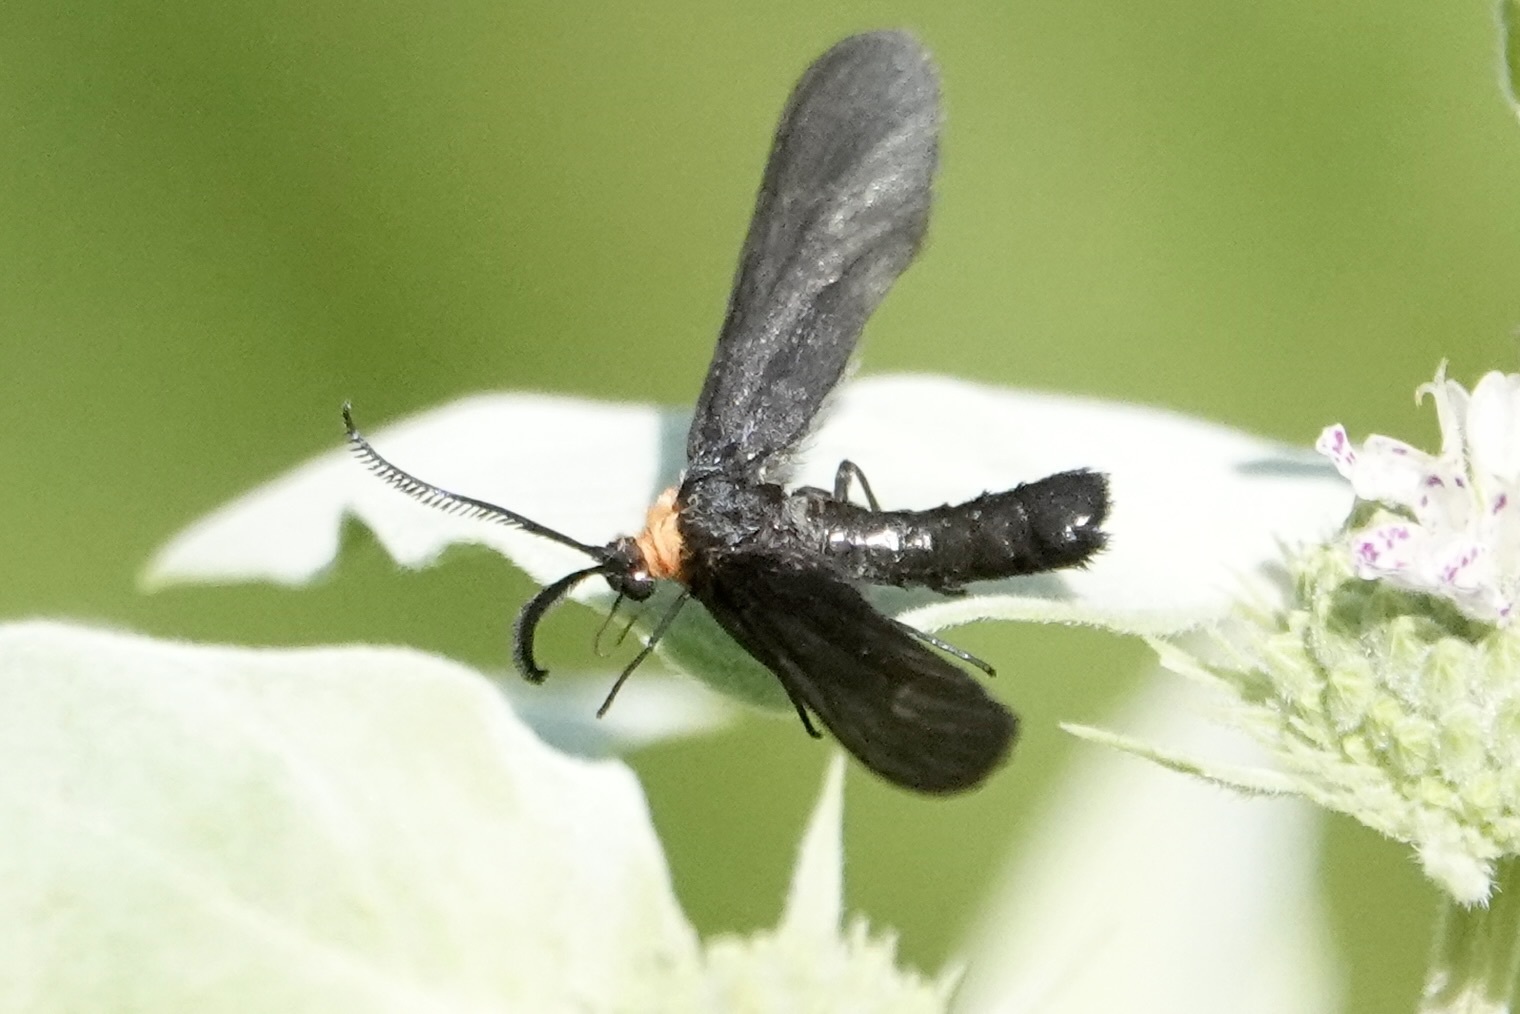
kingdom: Animalia
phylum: Arthropoda
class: Insecta
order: Lepidoptera
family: Zygaenidae
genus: Harrisina
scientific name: Harrisina americana
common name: Grapeleaf skeletonizer moth
